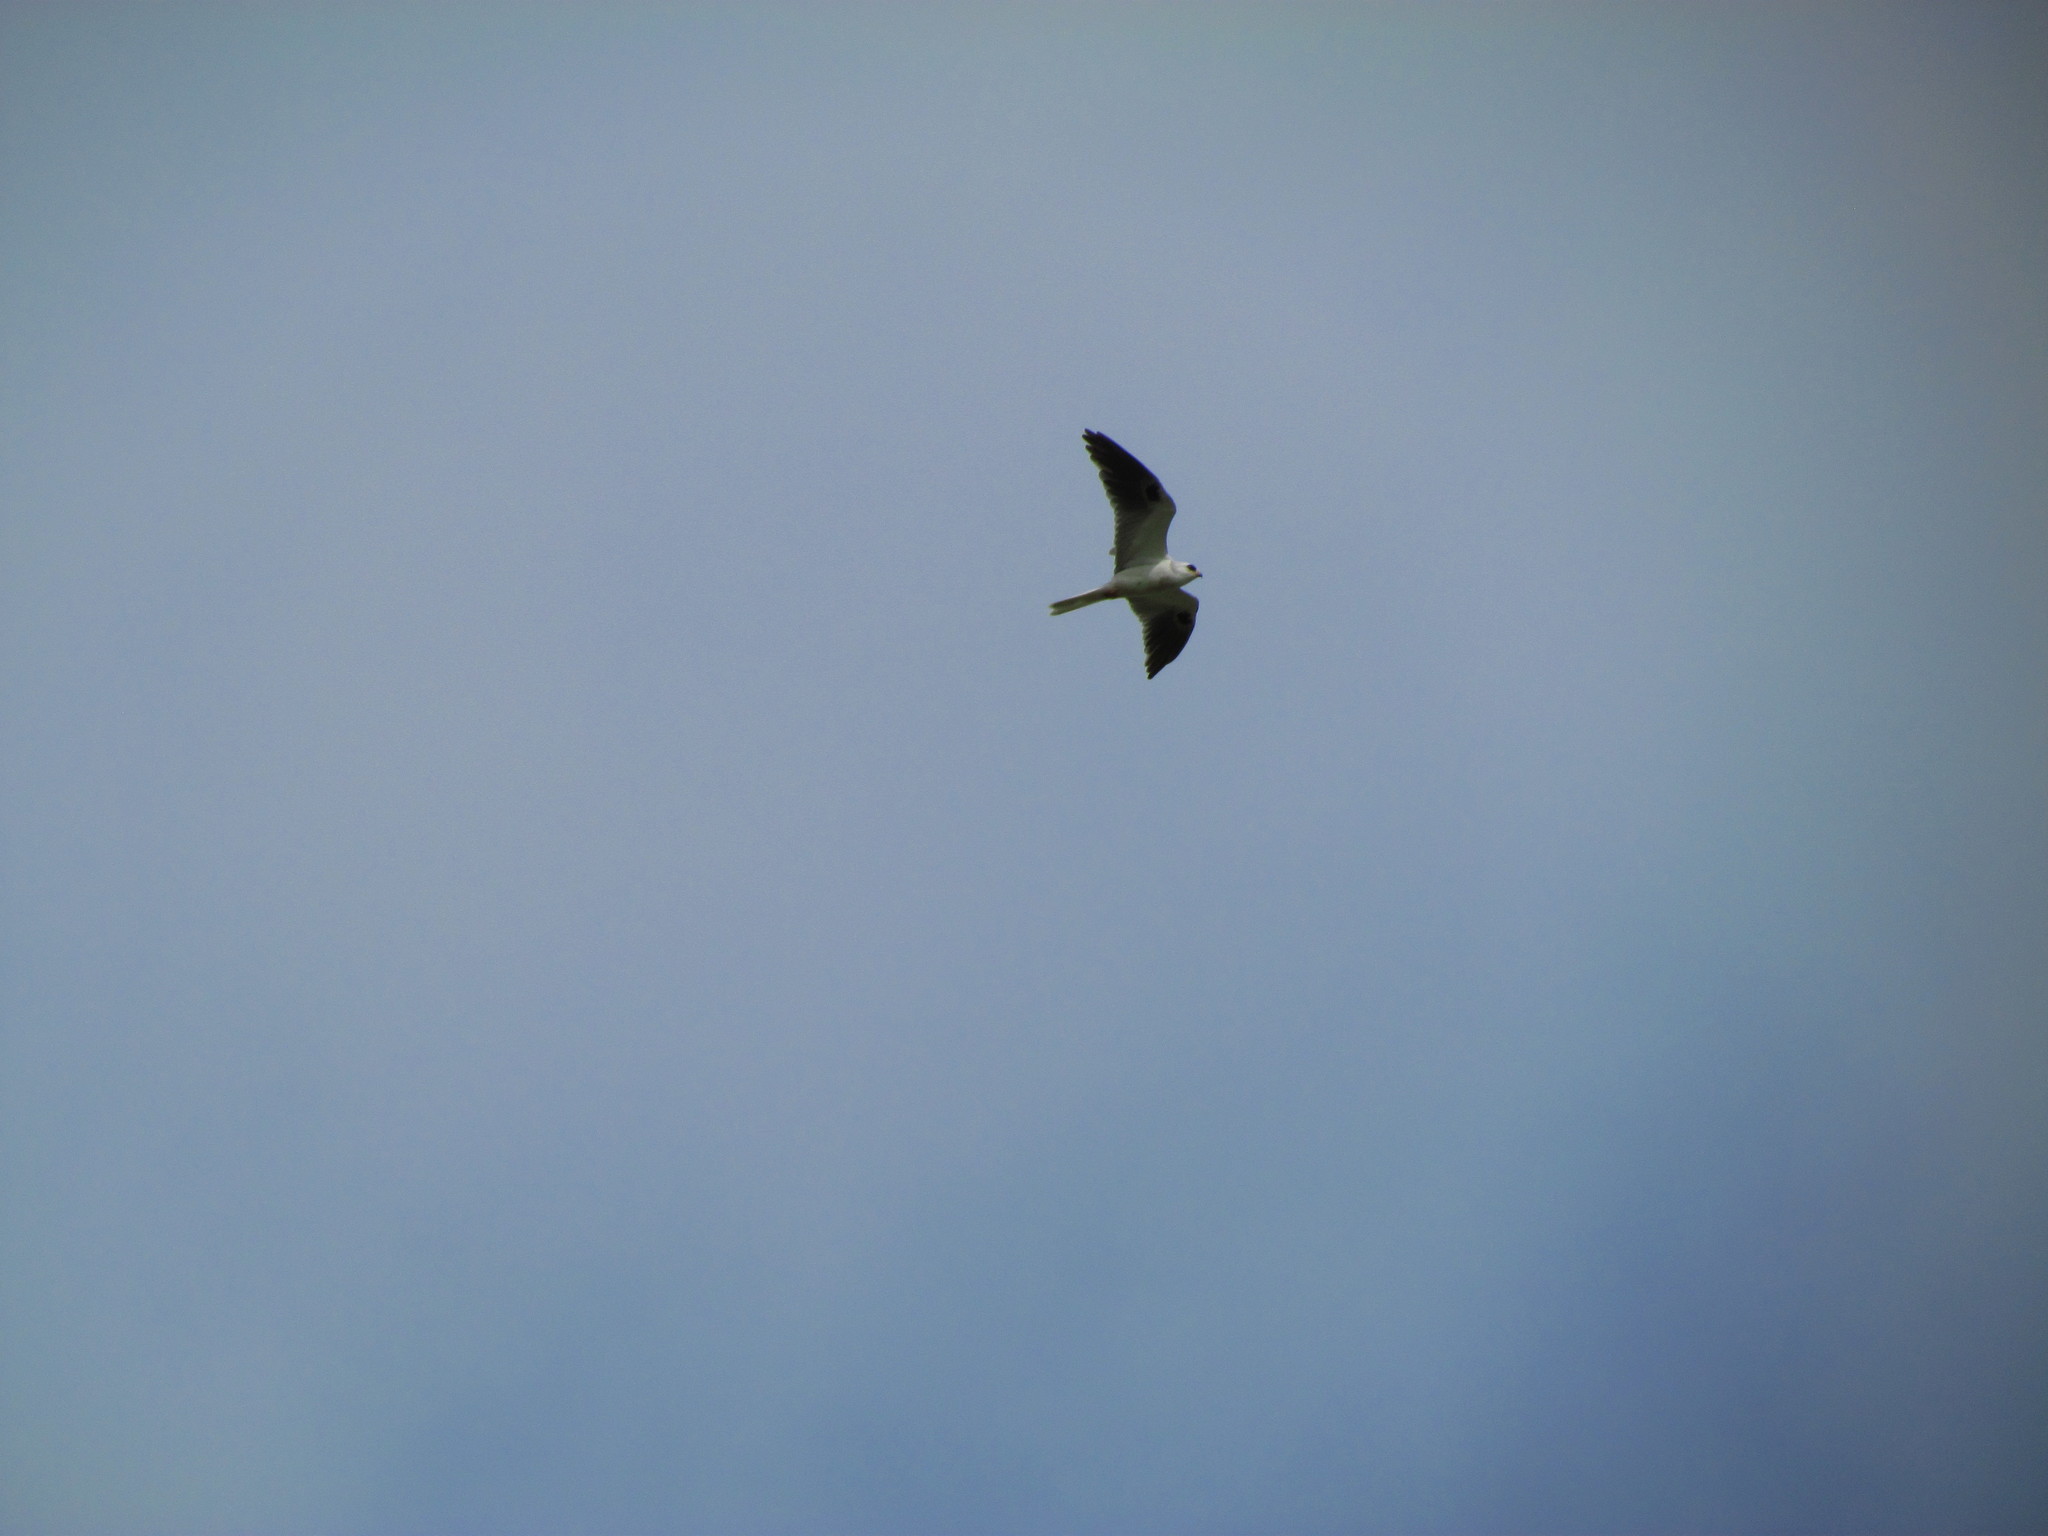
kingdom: Animalia
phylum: Chordata
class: Aves
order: Accipitriformes
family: Accipitridae
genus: Elanus
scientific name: Elanus leucurus
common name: White-tailed kite
